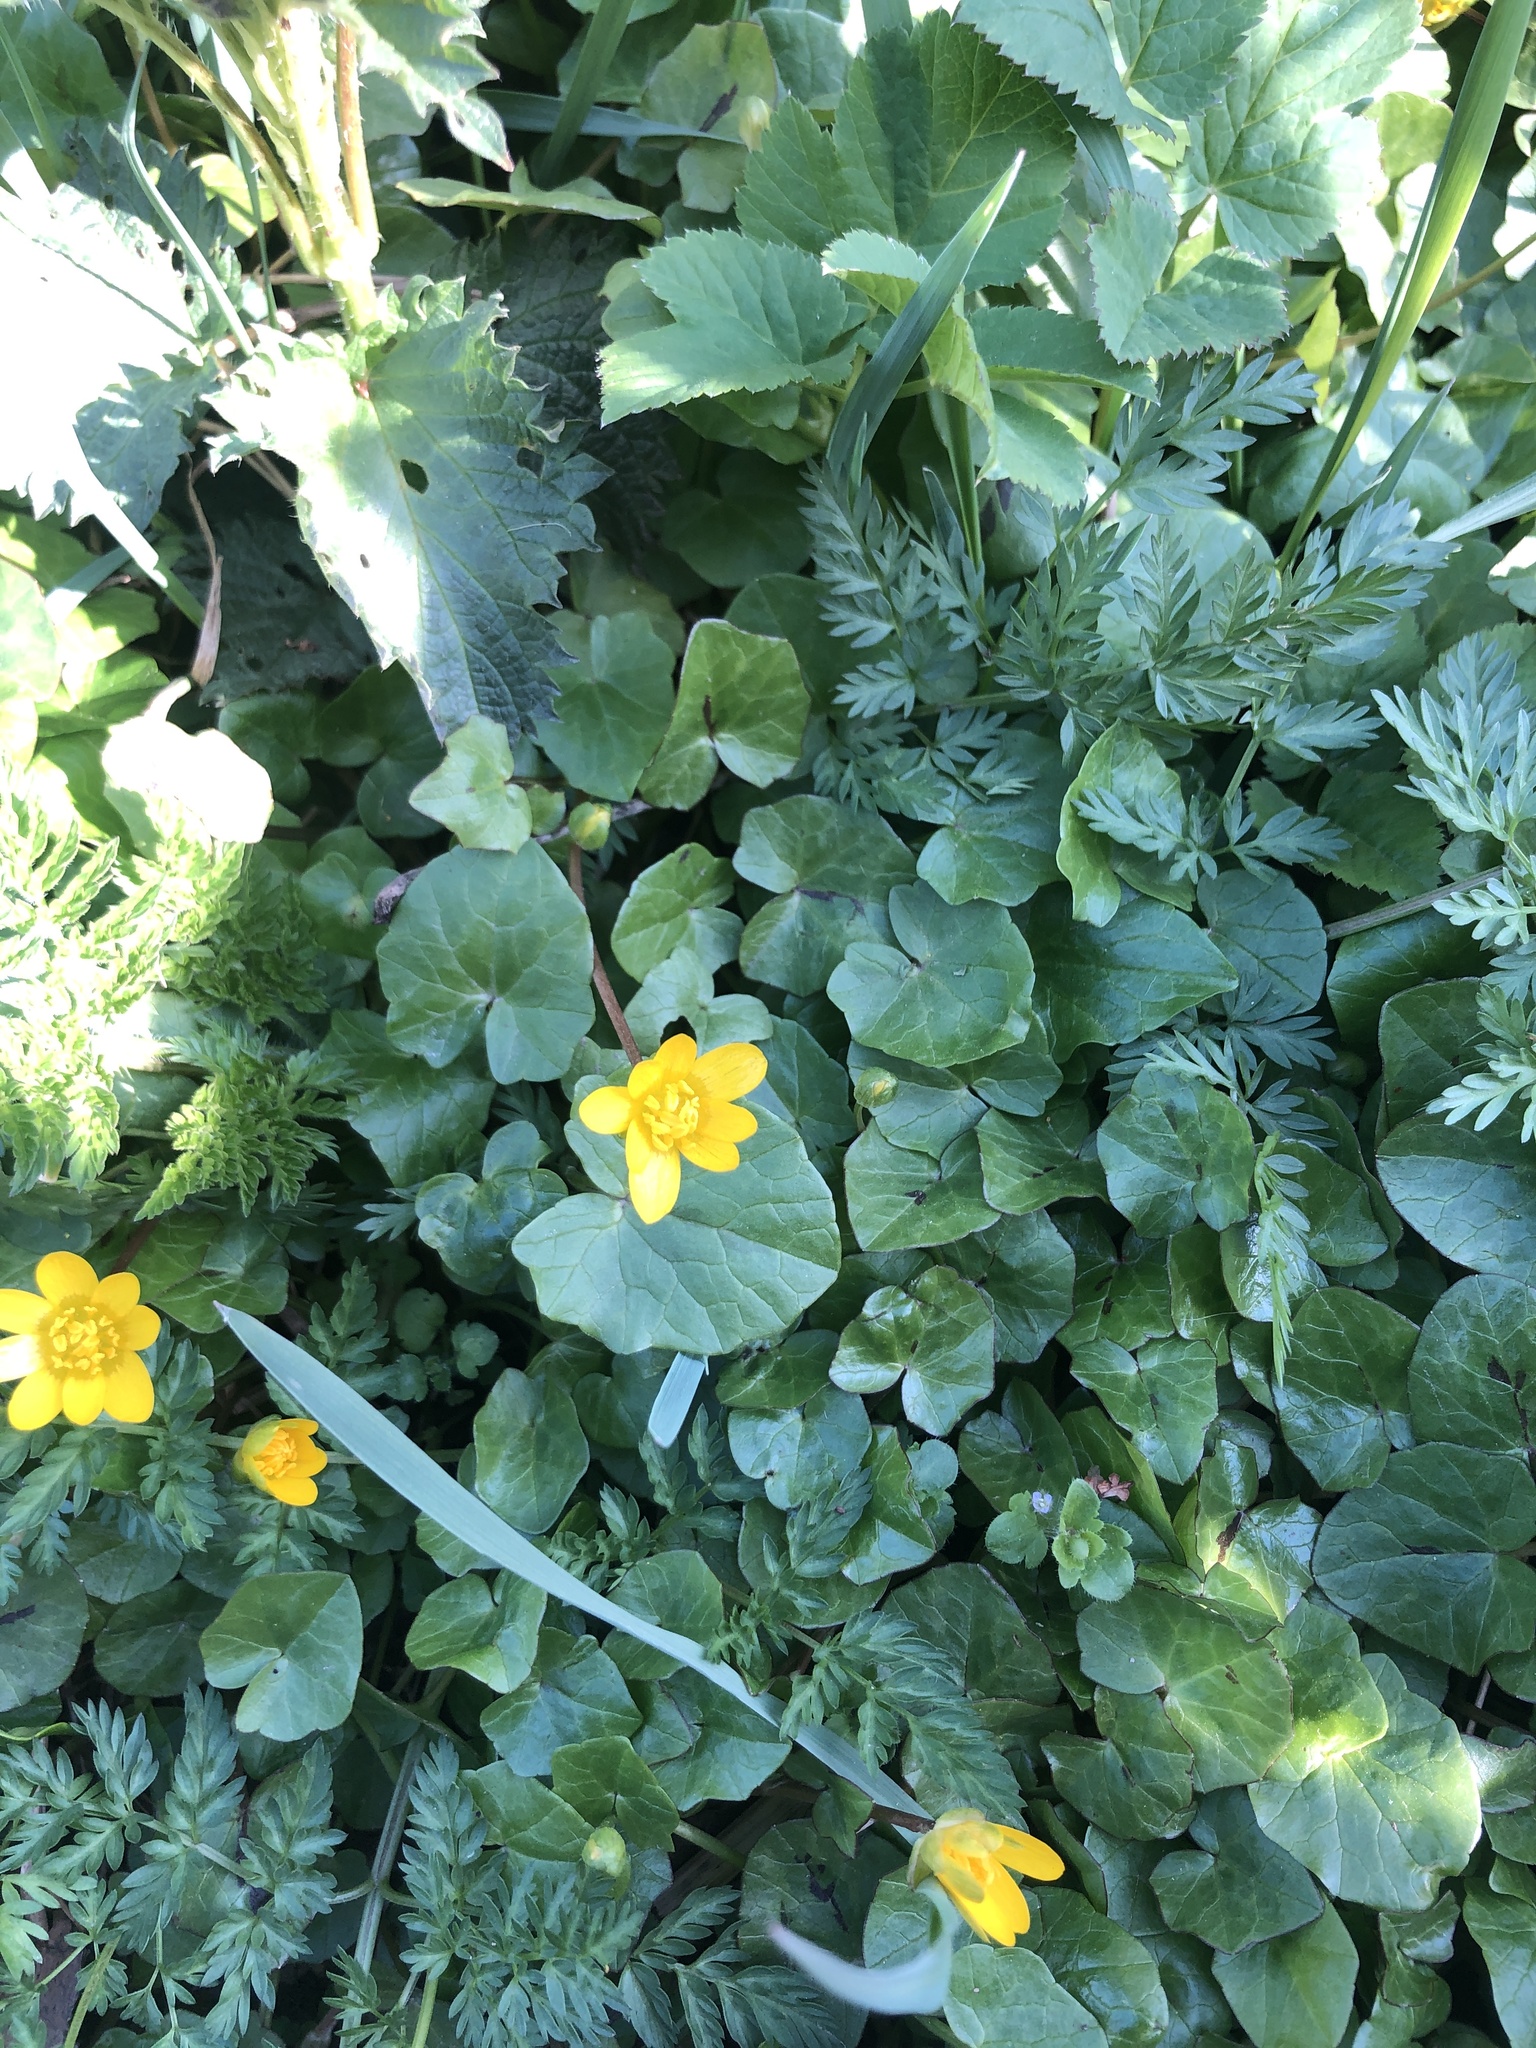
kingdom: Plantae
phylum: Tracheophyta
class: Magnoliopsida
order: Ranunculales
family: Ranunculaceae
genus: Ficaria
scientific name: Ficaria verna
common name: Lesser celandine
